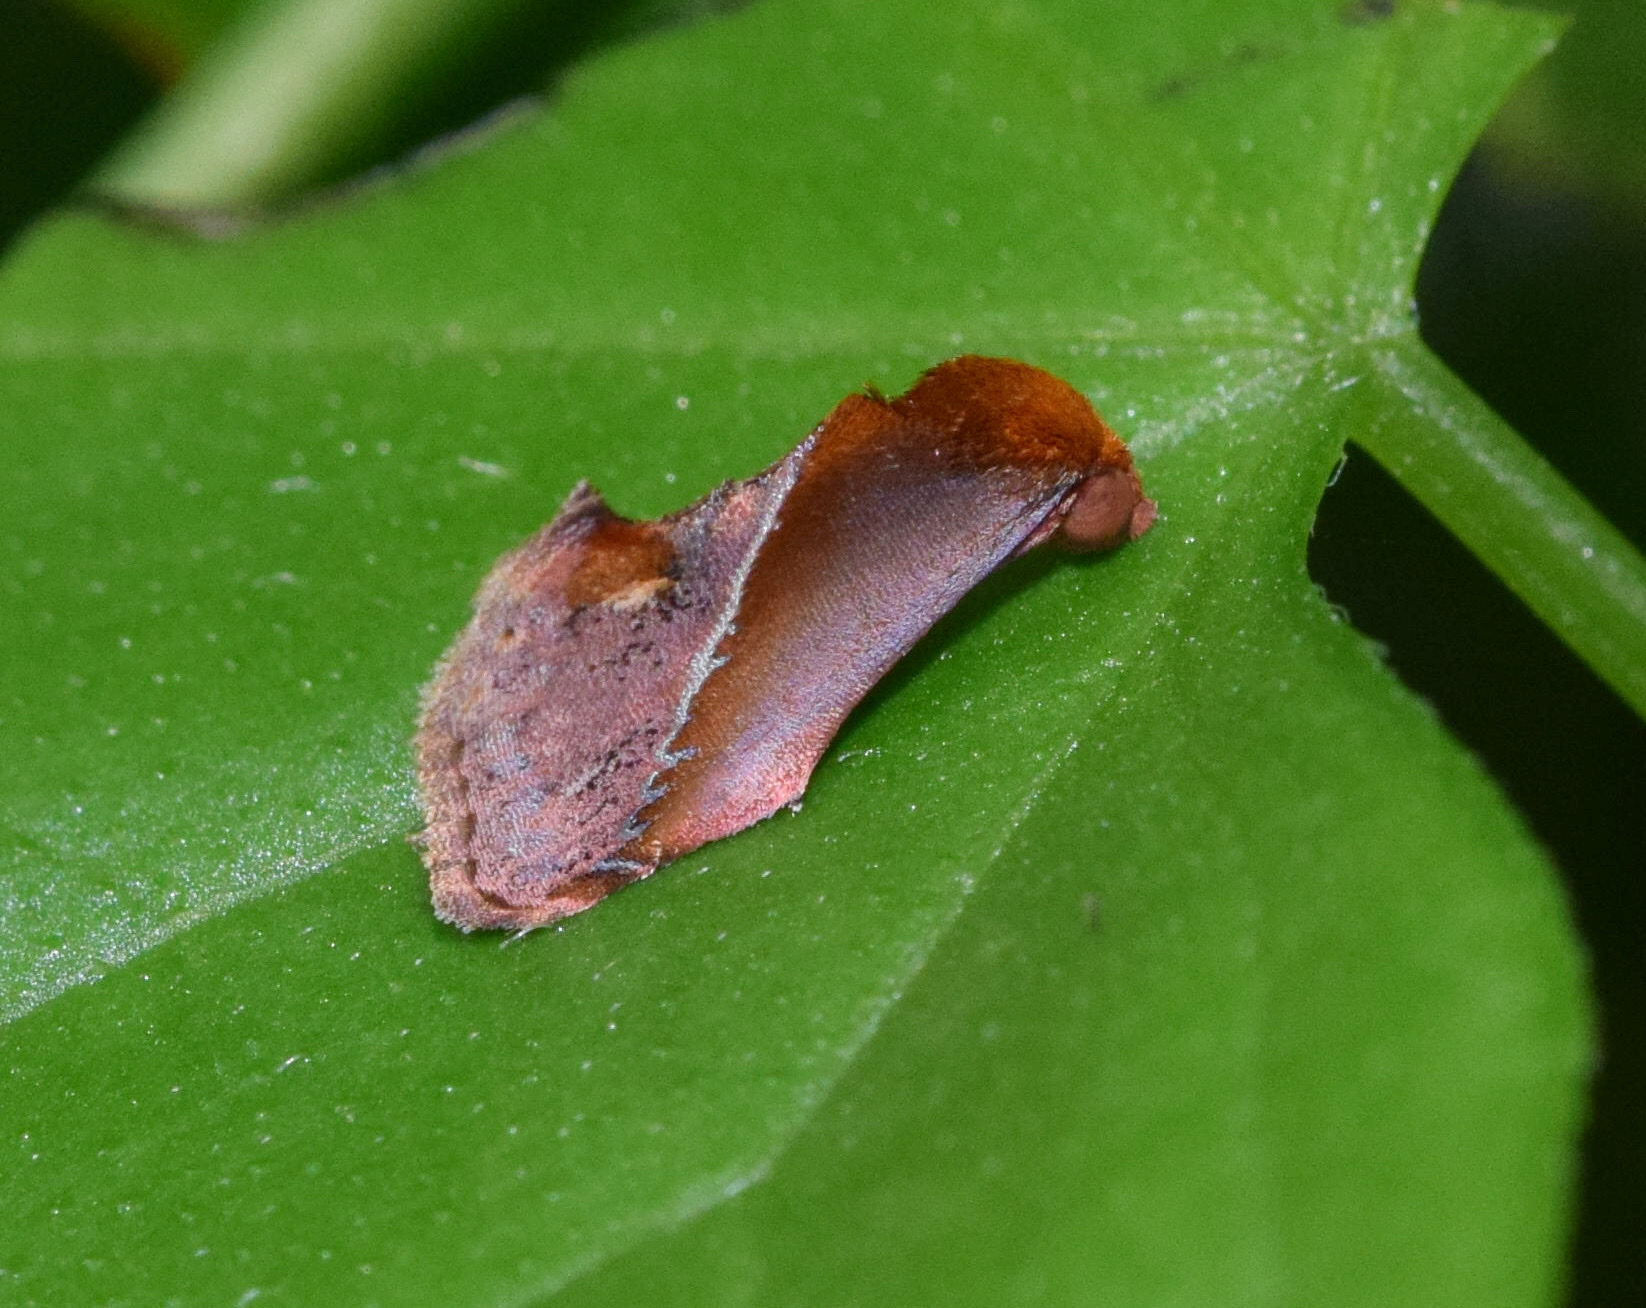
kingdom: Animalia
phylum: Arthropoda
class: Insecta
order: Lepidoptera
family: Erebidae
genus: Arsacia
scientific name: Arsacia rectalis
